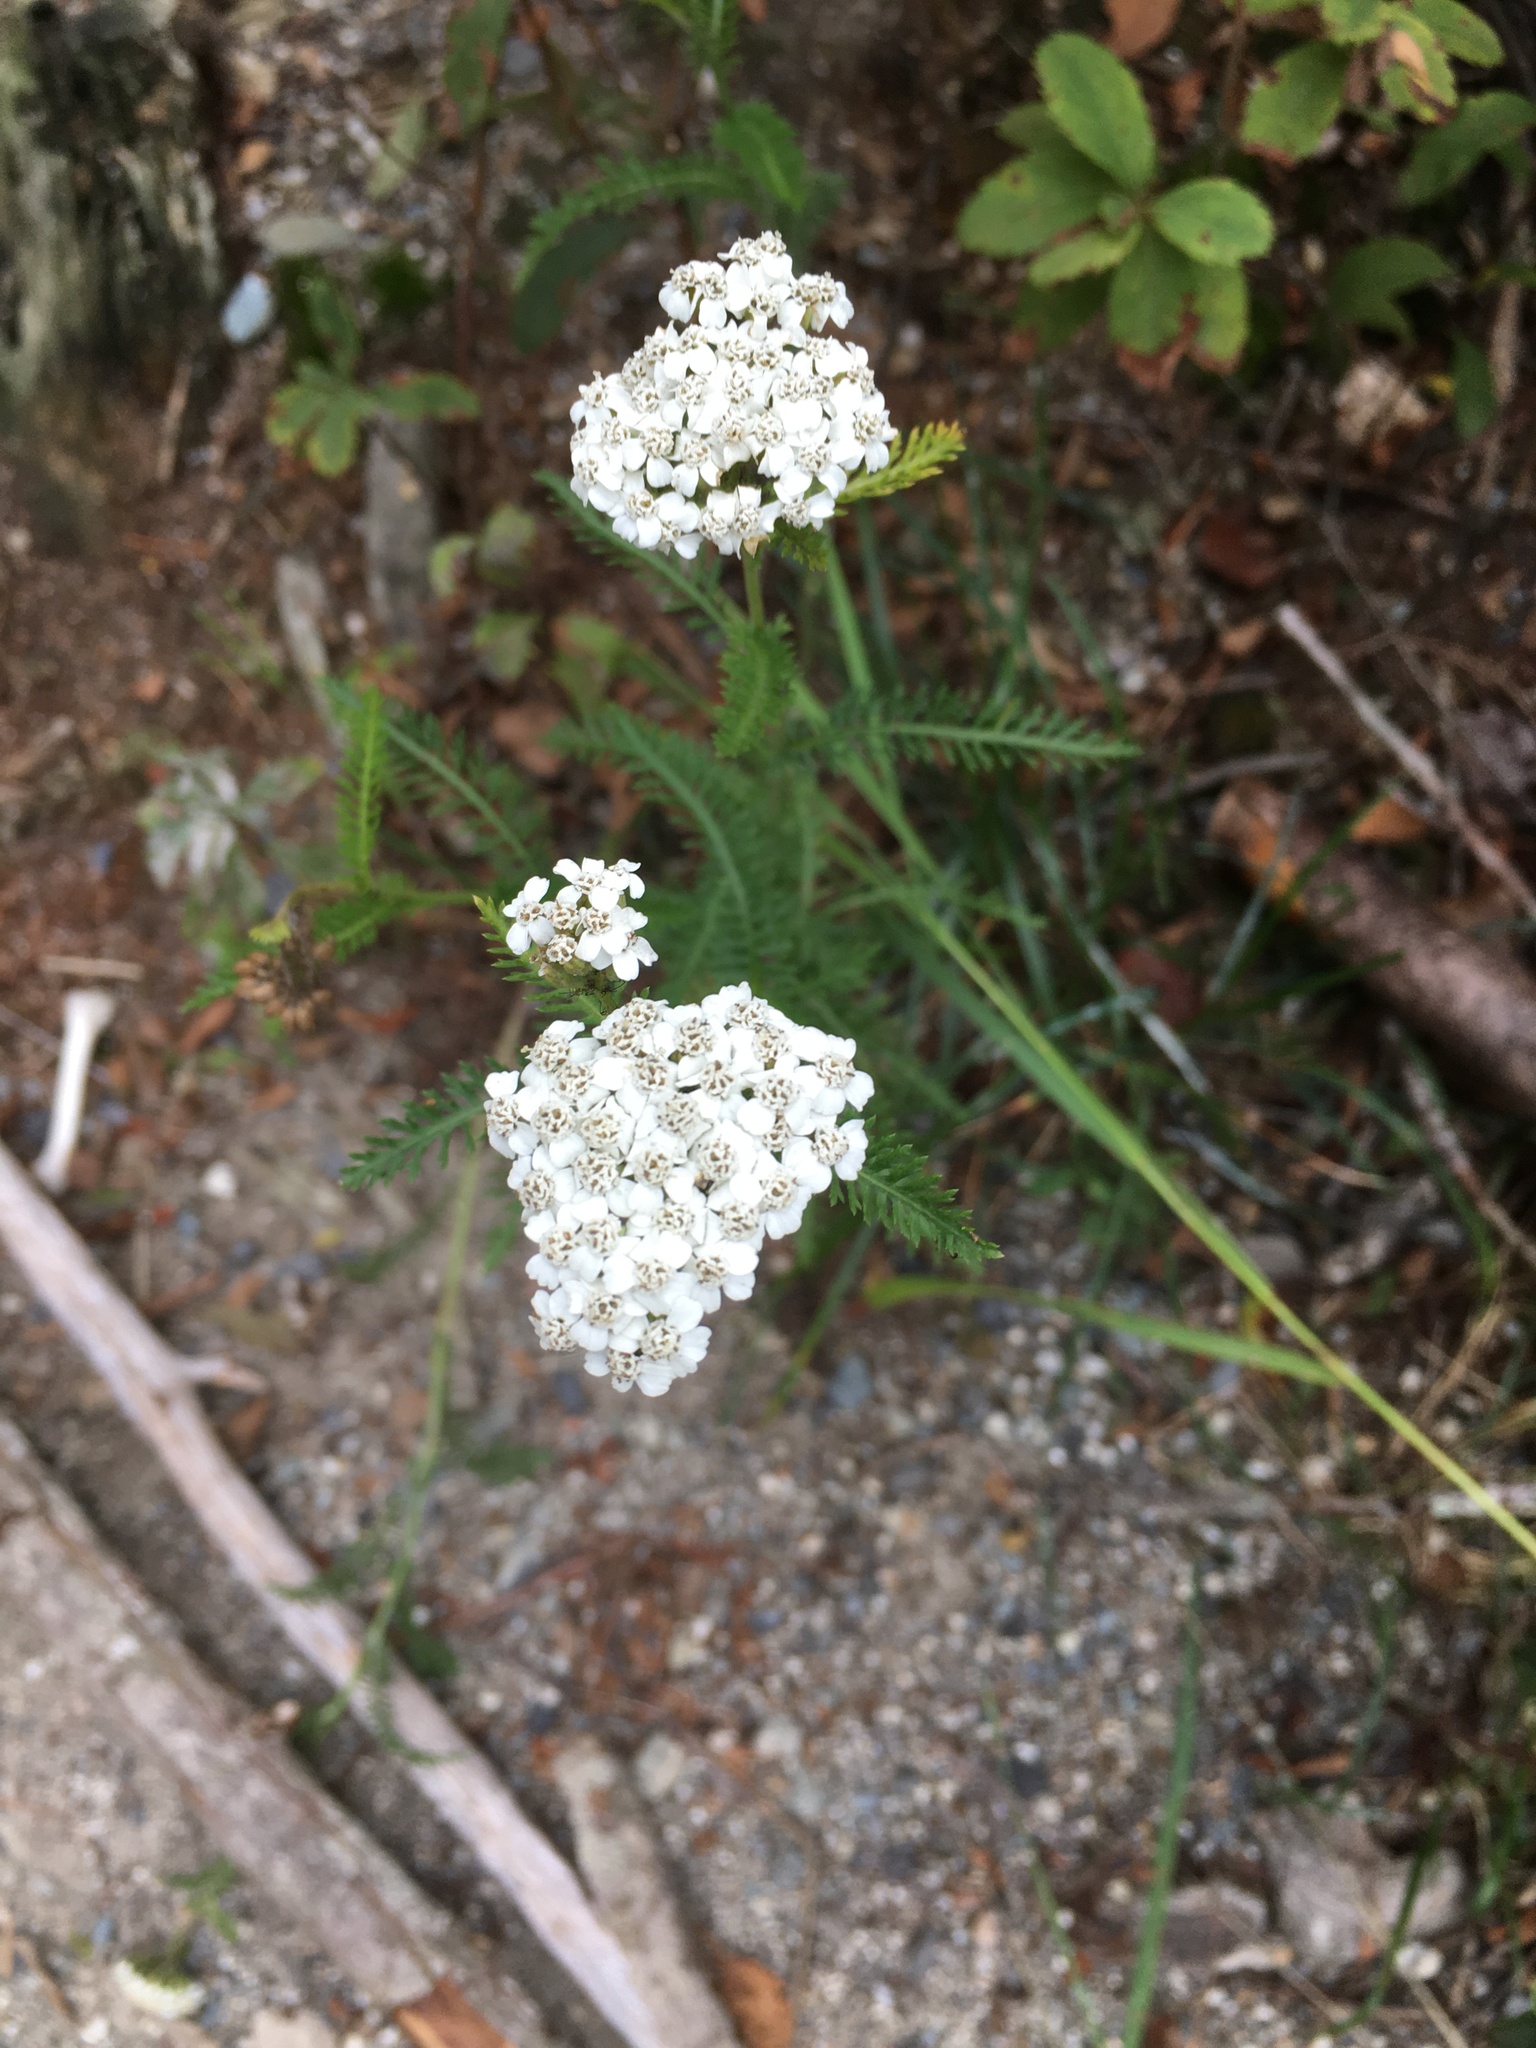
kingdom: Plantae
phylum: Tracheophyta
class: Magnoliopsida
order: Asterales
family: Asteraceae
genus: Achillea
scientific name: Achillea millefolium
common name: Yarrow
